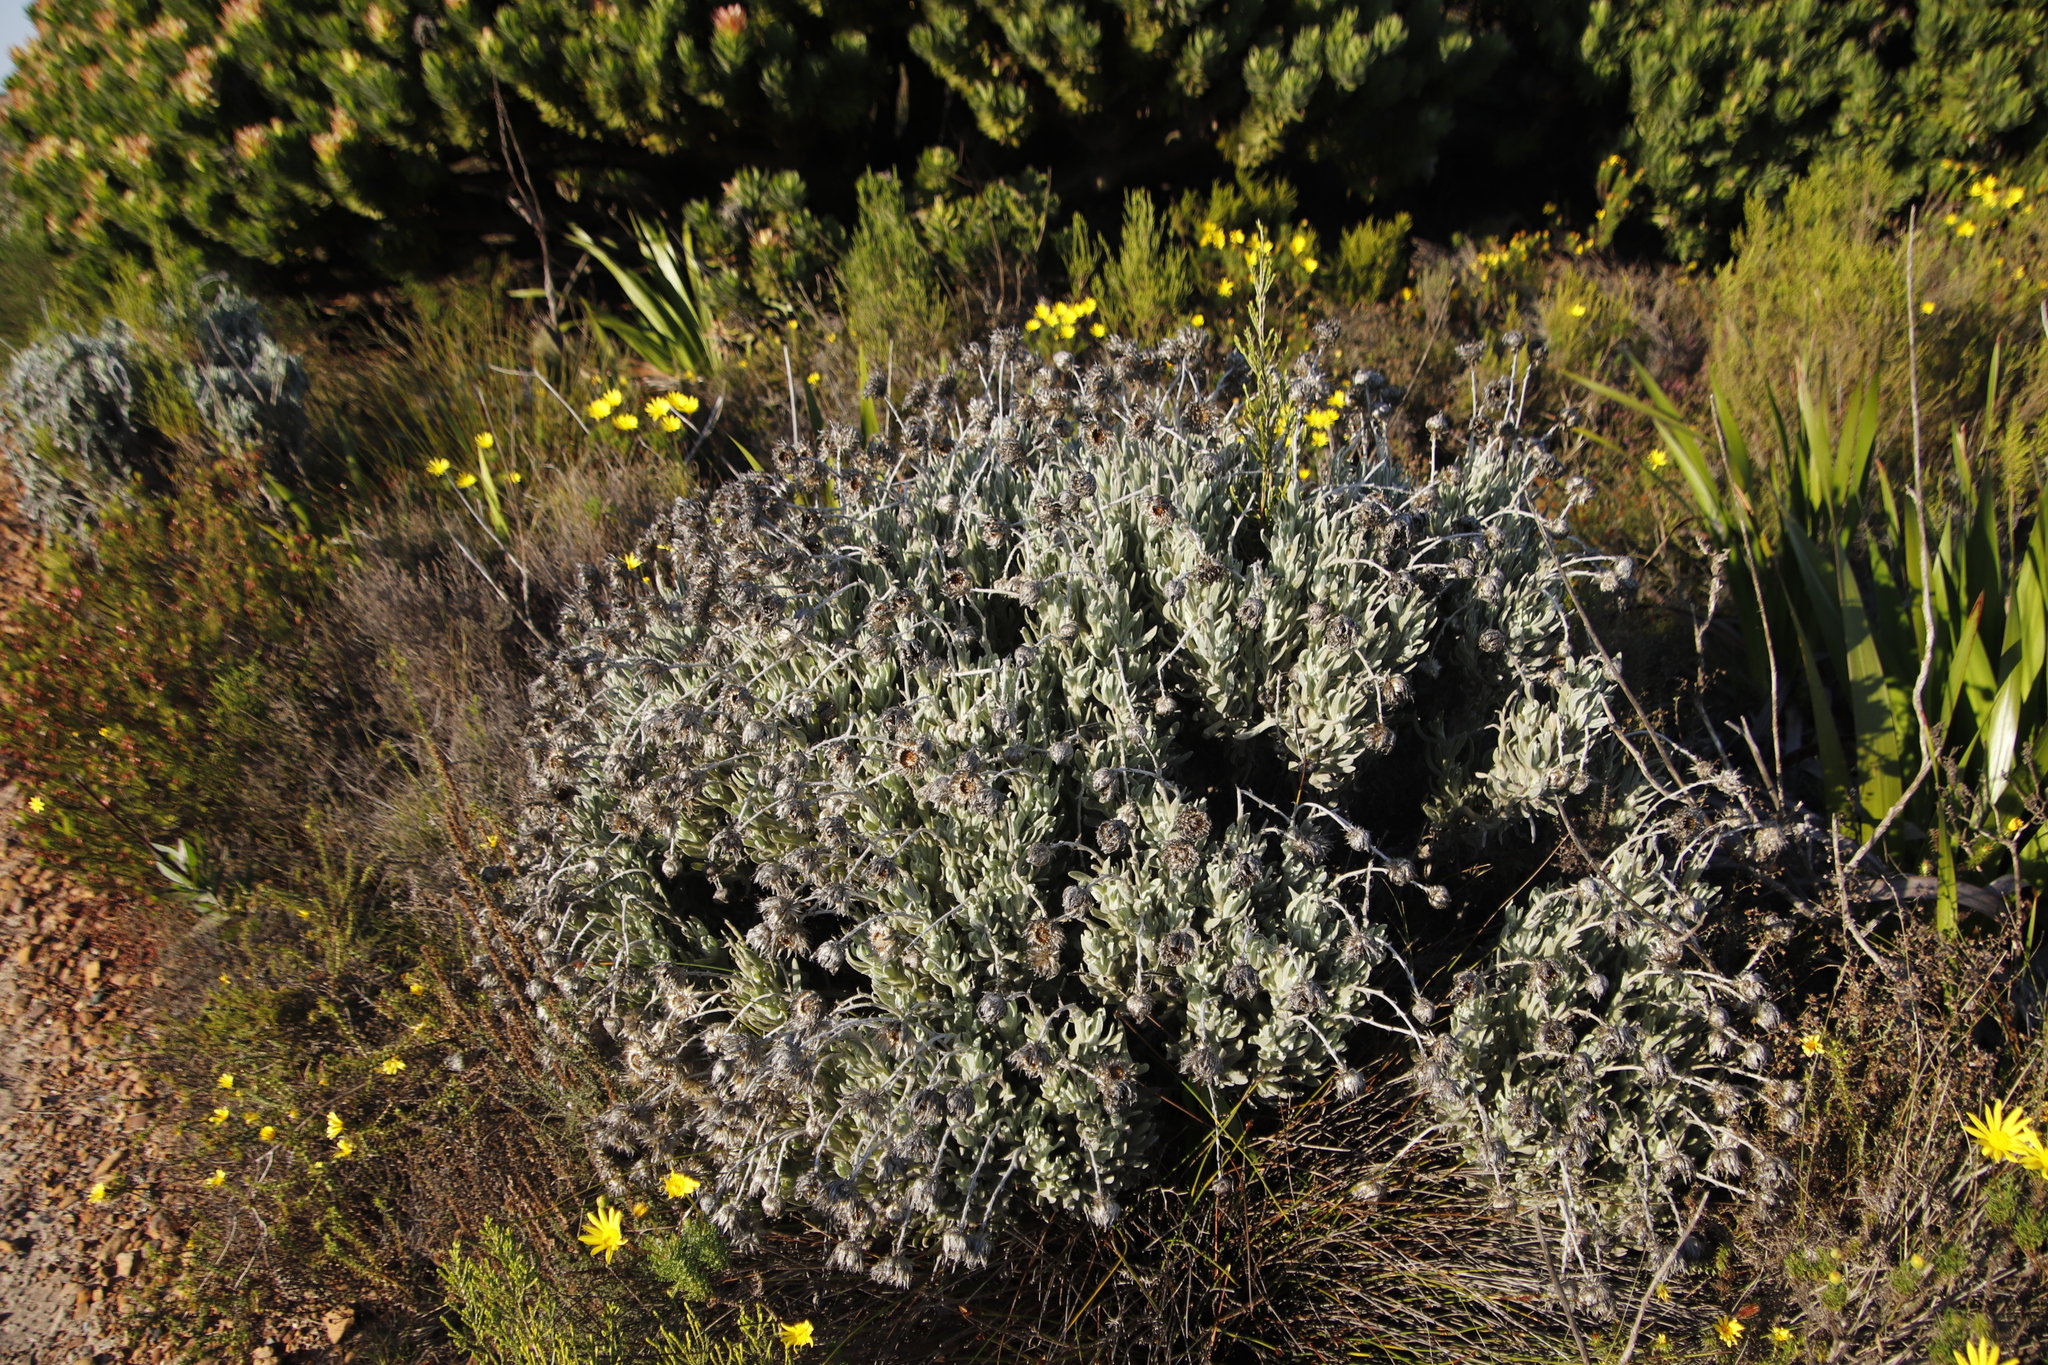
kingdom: Plantae
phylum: Tracheophyta
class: Magnoliopsida
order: Asterales
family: Asteraceae
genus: Syncarpha
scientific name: Syncarpha vestita
